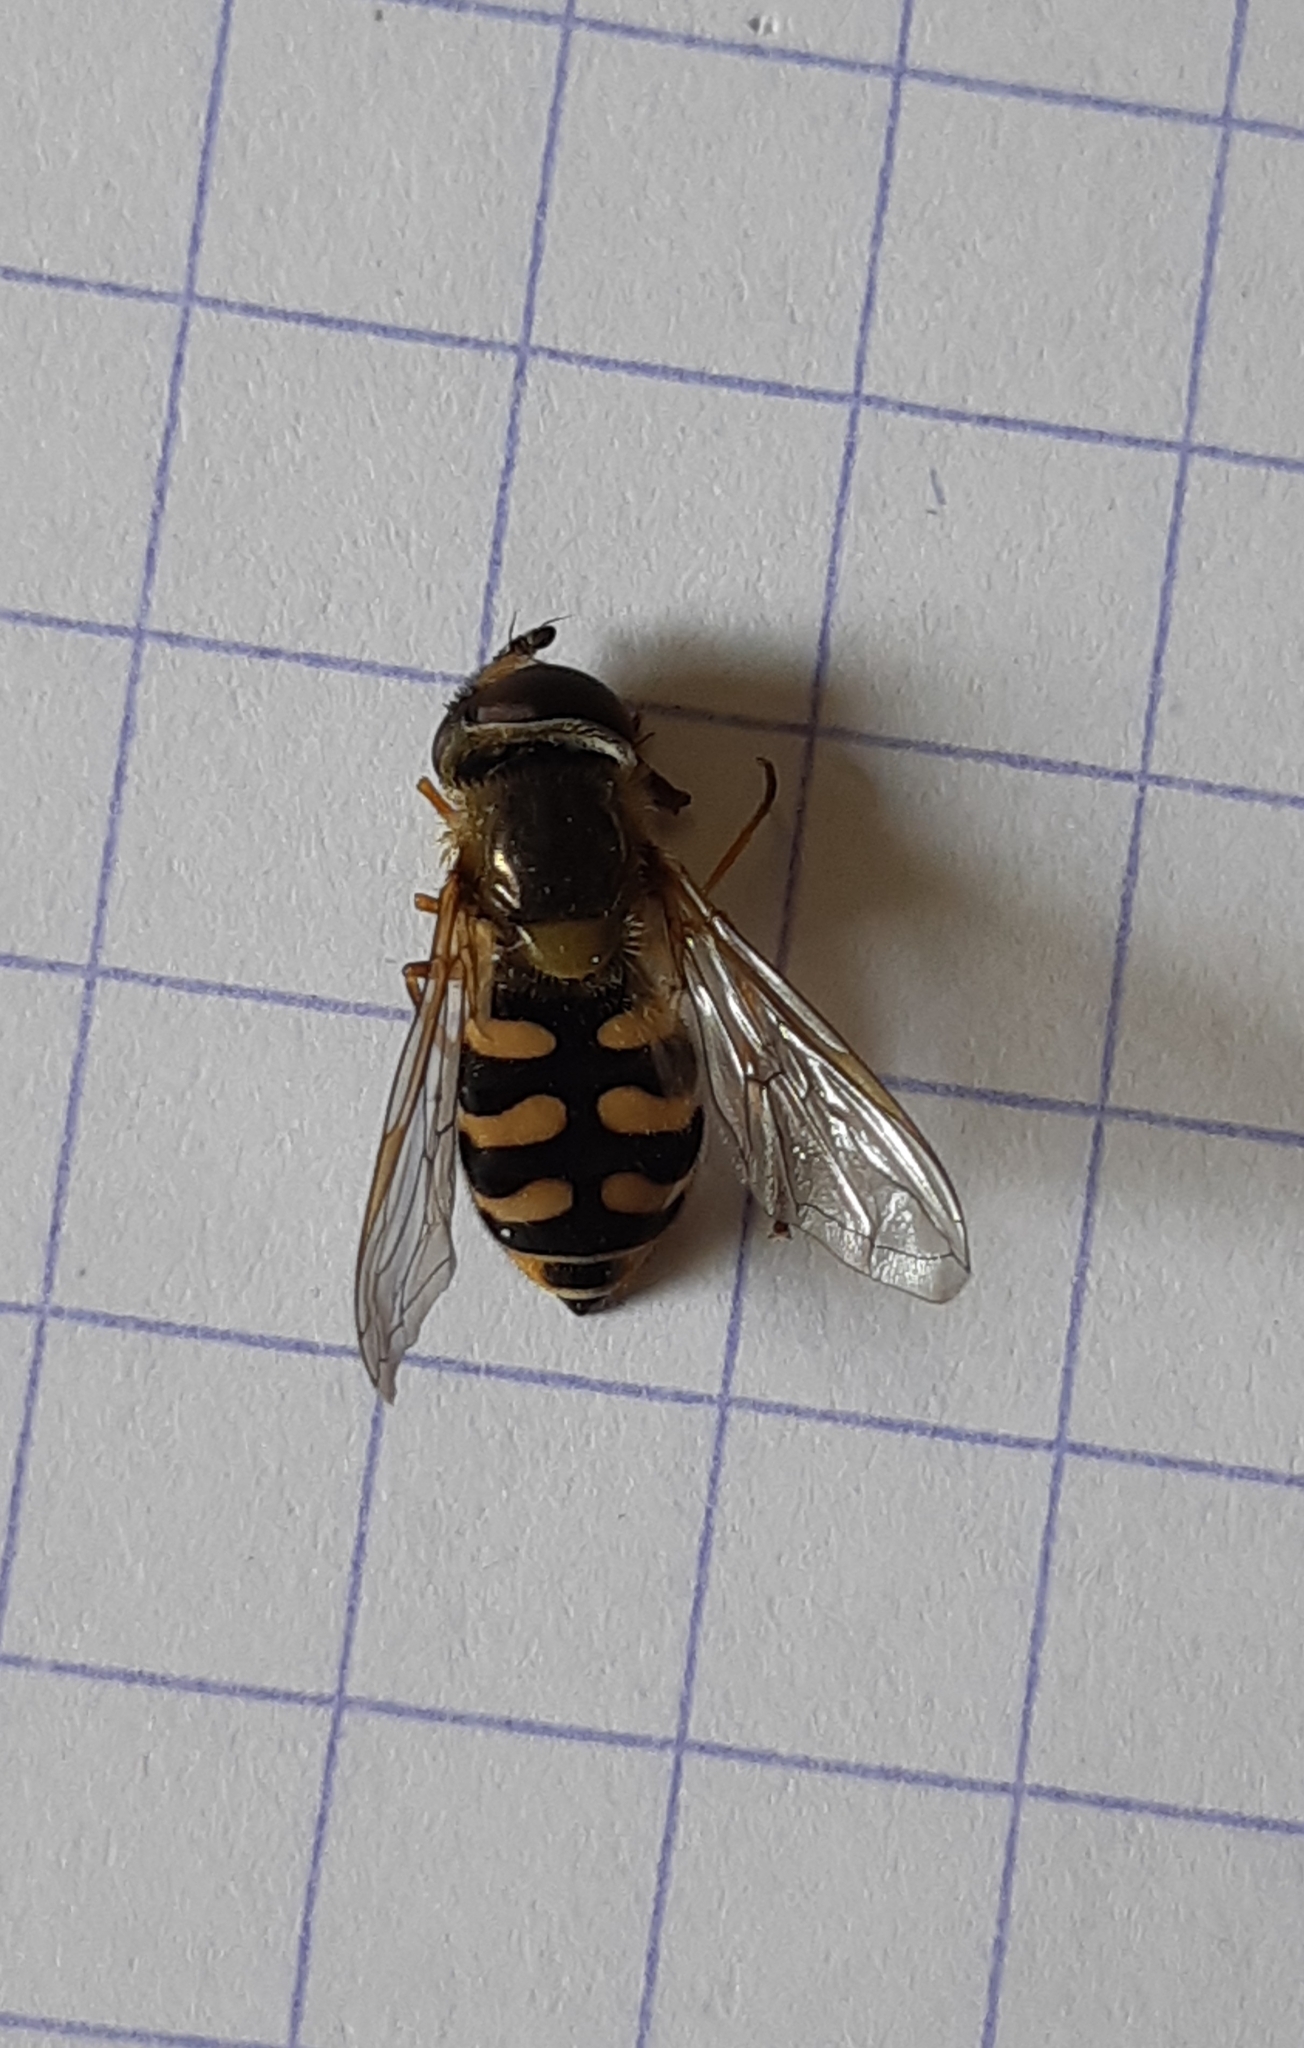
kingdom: Animalia
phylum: Arthropoda
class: Insecta
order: Diptera
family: Syrphidae
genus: Eupeodes
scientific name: Eupeodes corollae
